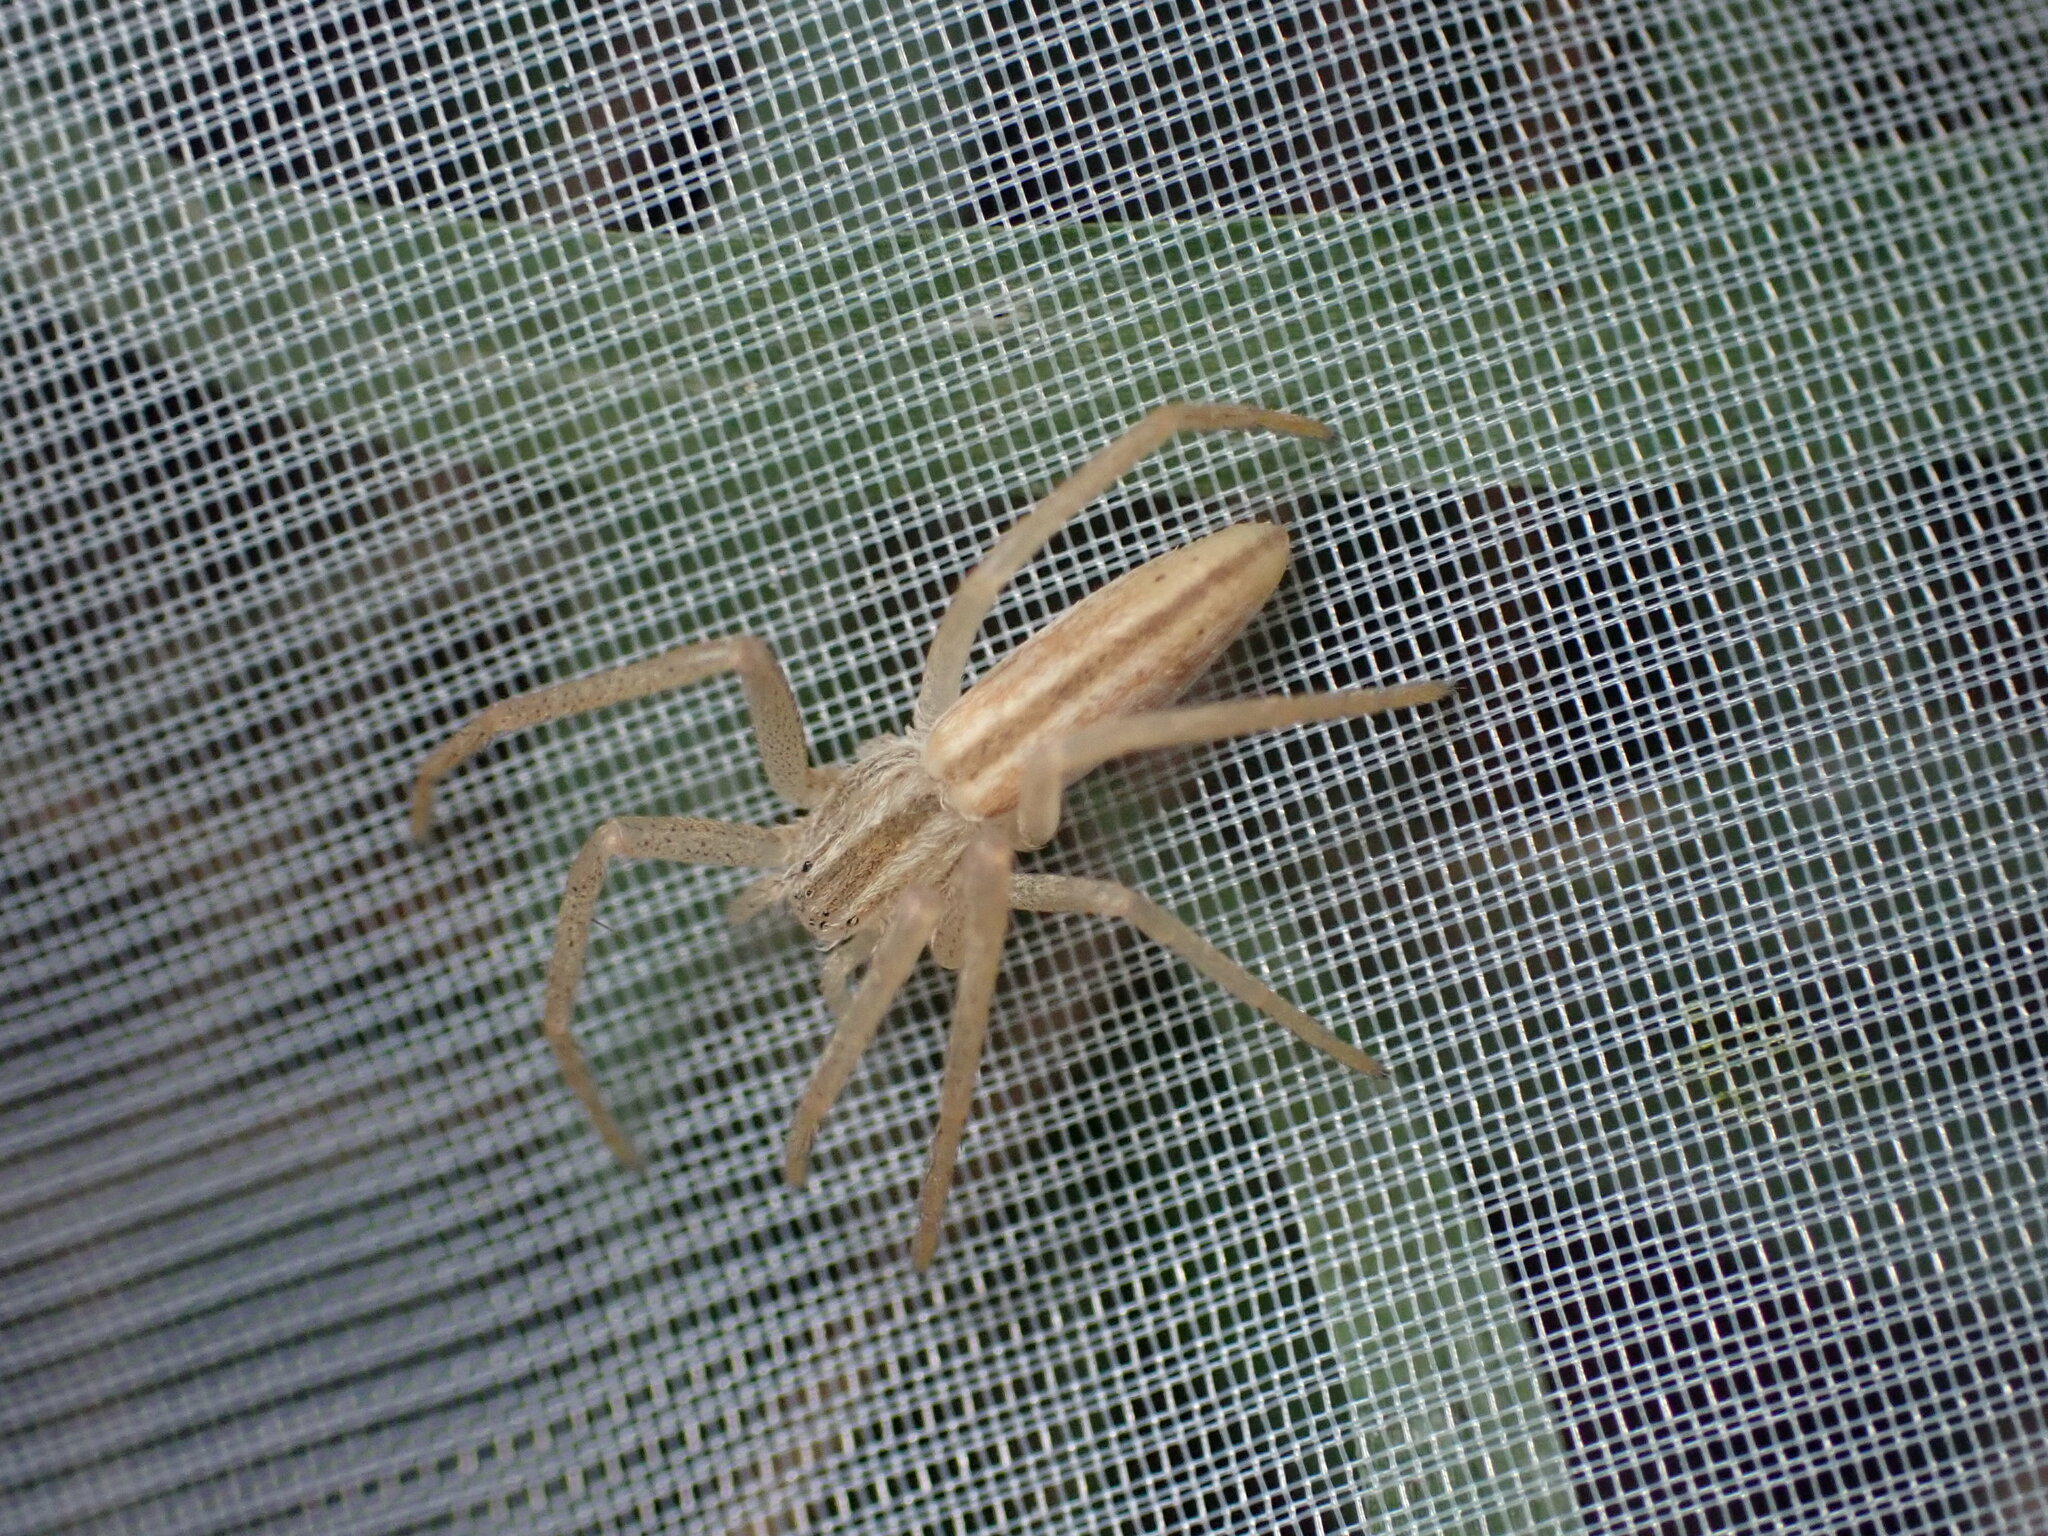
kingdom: Animalia
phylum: Arthropoda
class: Arachnida
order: Araneae
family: Philodromidae
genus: Tibellus
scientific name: Tibellus
